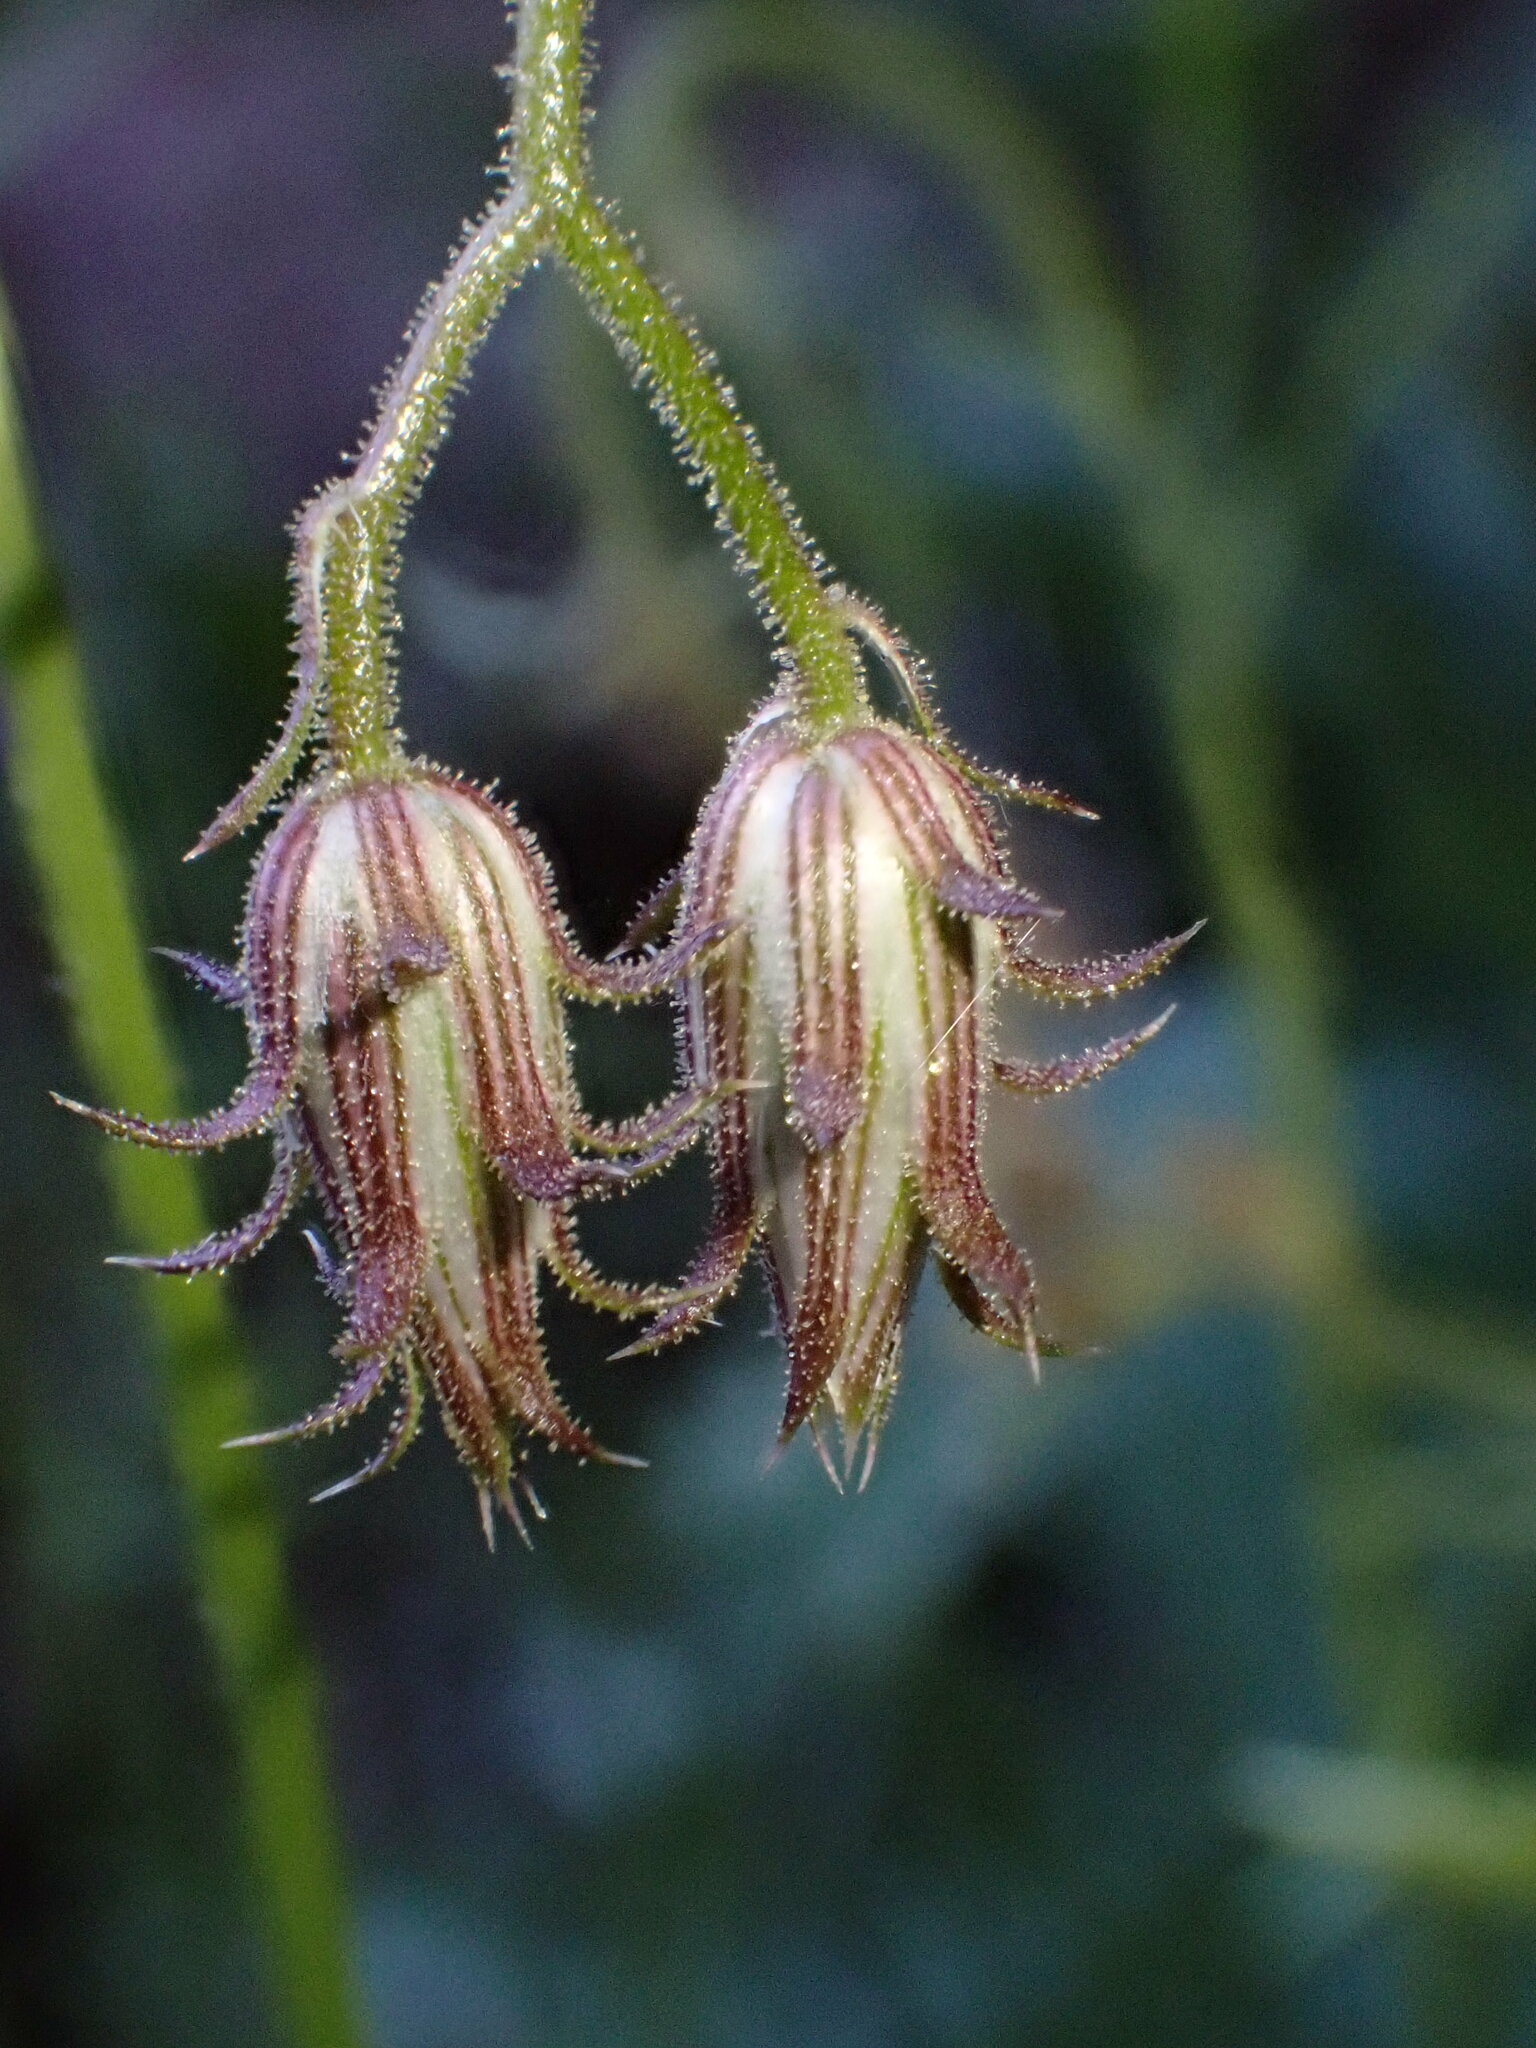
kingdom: Plantae
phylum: Tracheophyta
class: Magnoliopsida
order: Asterales
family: Asteraceae
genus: Pleurocoronis
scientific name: Pleurocoronis pluriseta
